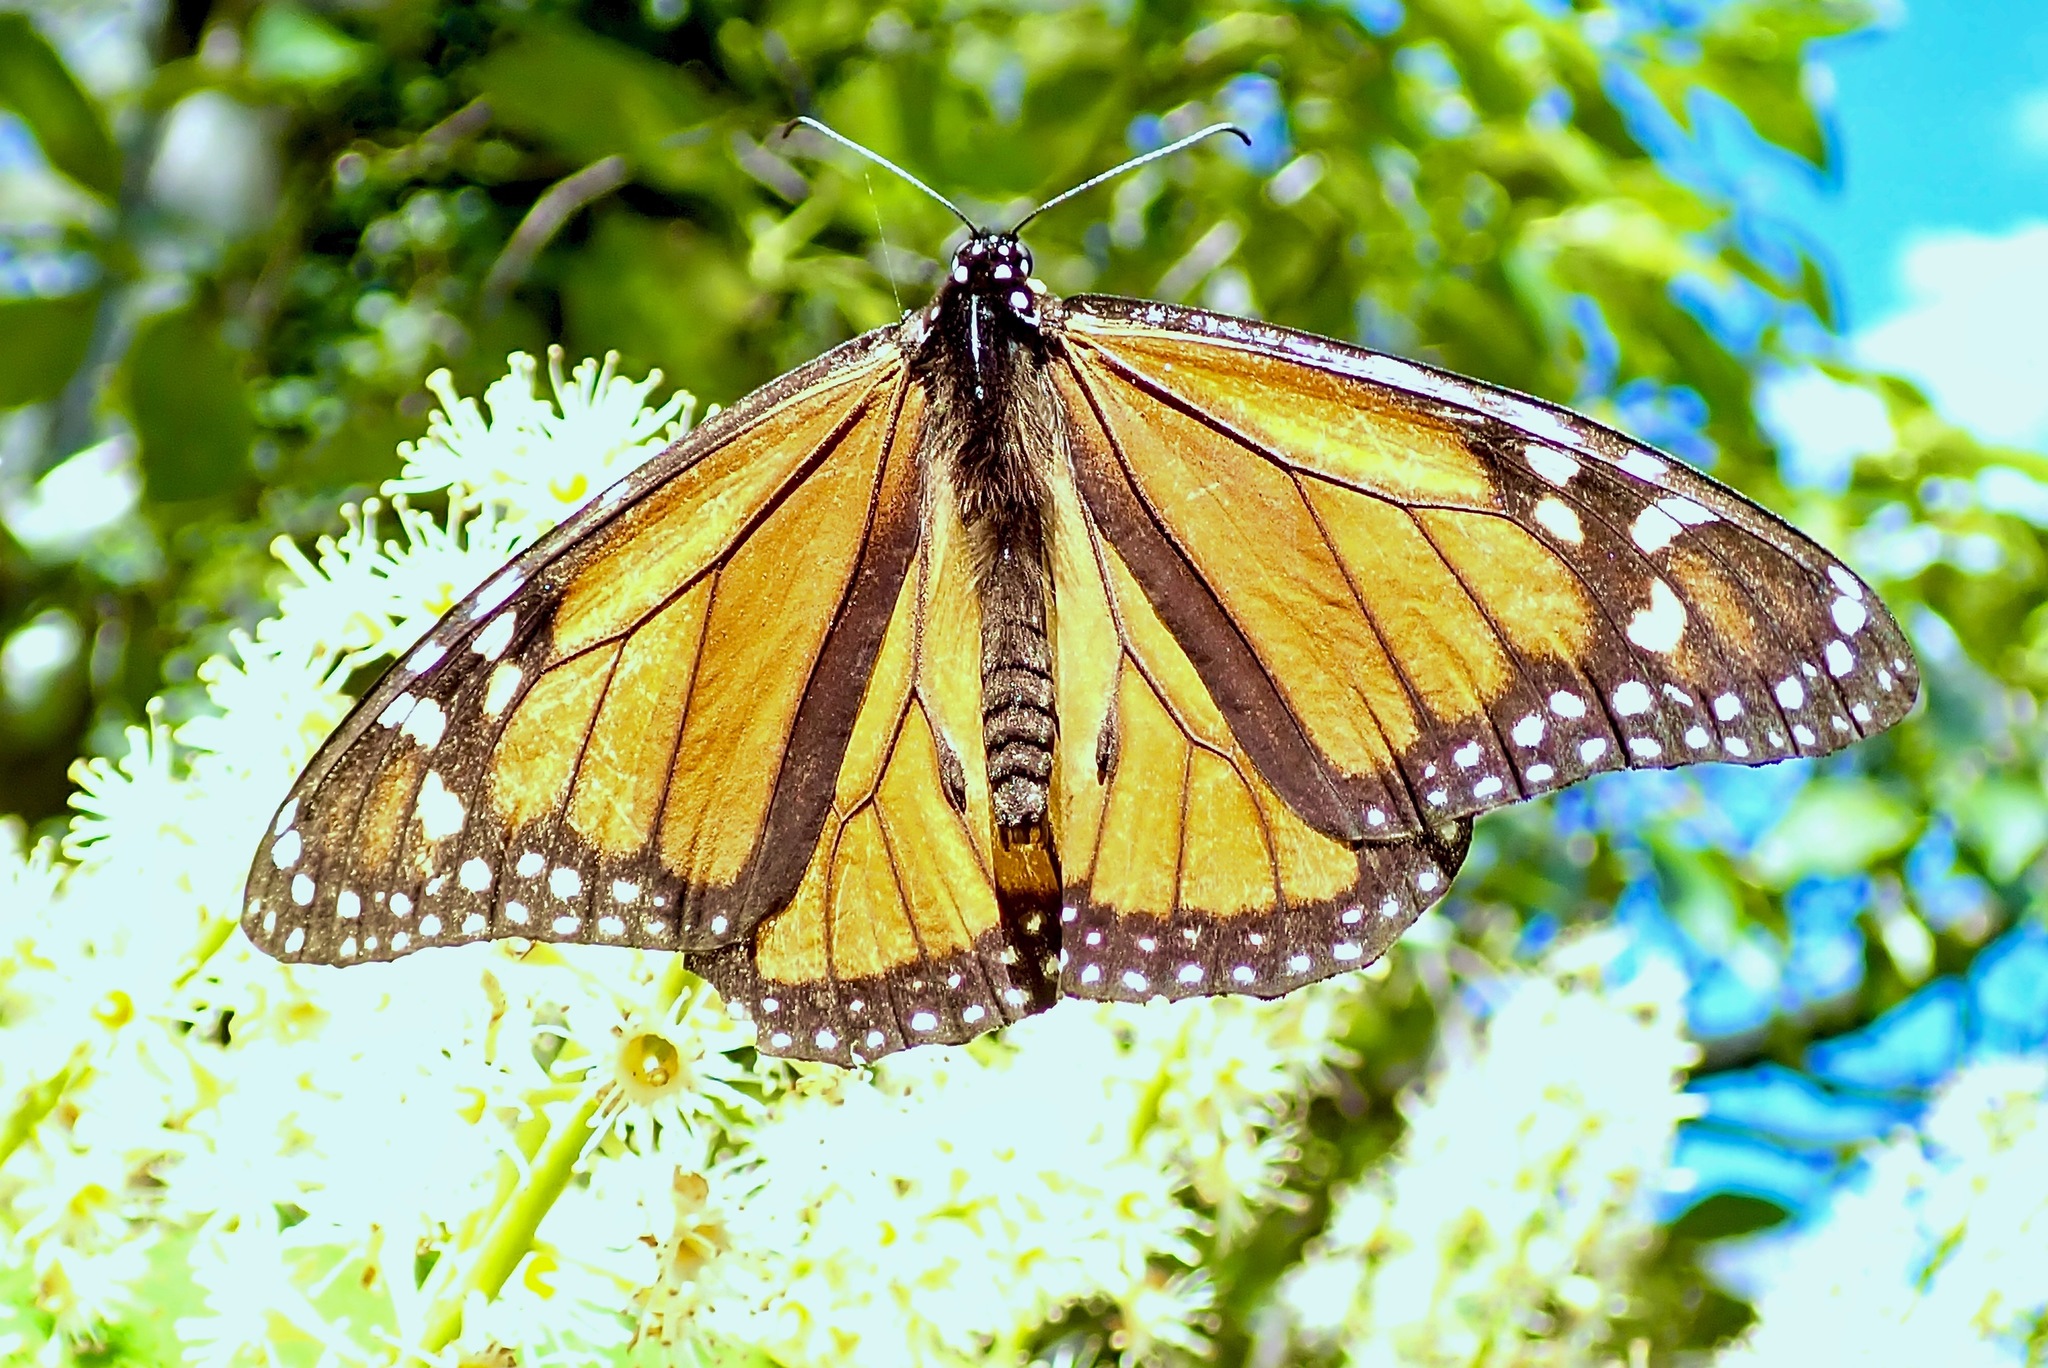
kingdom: Animalia
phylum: Arthropoda
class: Insecta
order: Lepidoptera
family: Nymphalidae
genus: Danaus
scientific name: Danaus plexippus
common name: Monarch
